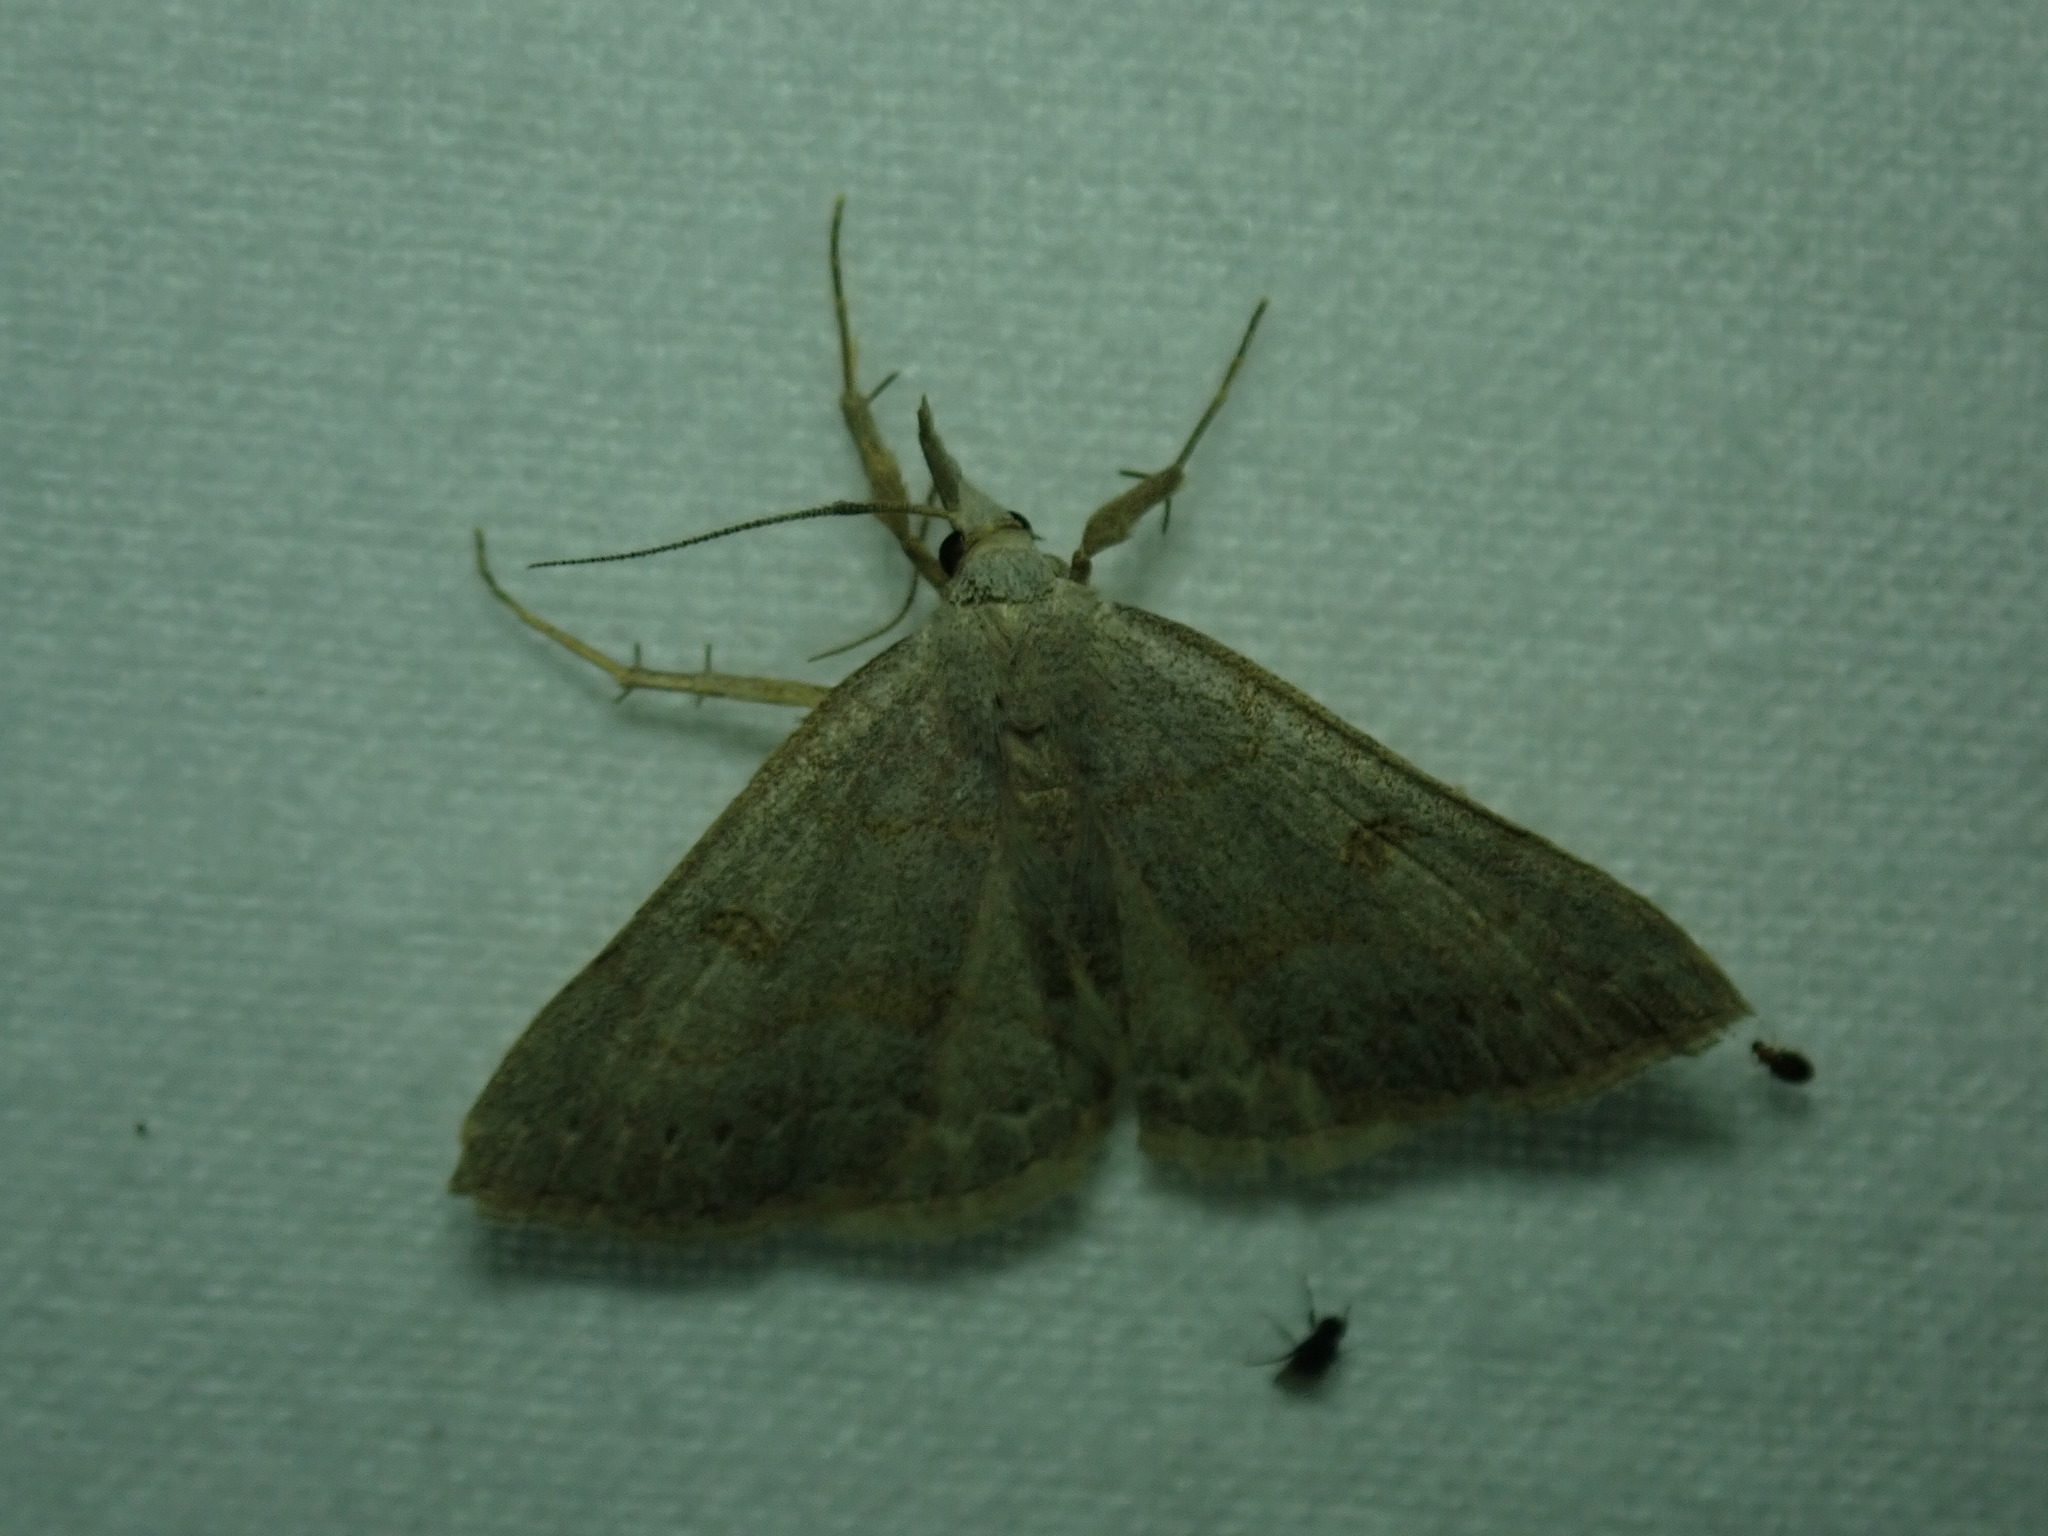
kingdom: Animalia
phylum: Arthropoda
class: Insecta
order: Lepidoptera
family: Erebidae
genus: Macrochilo
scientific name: Macrochilo morbidalis
